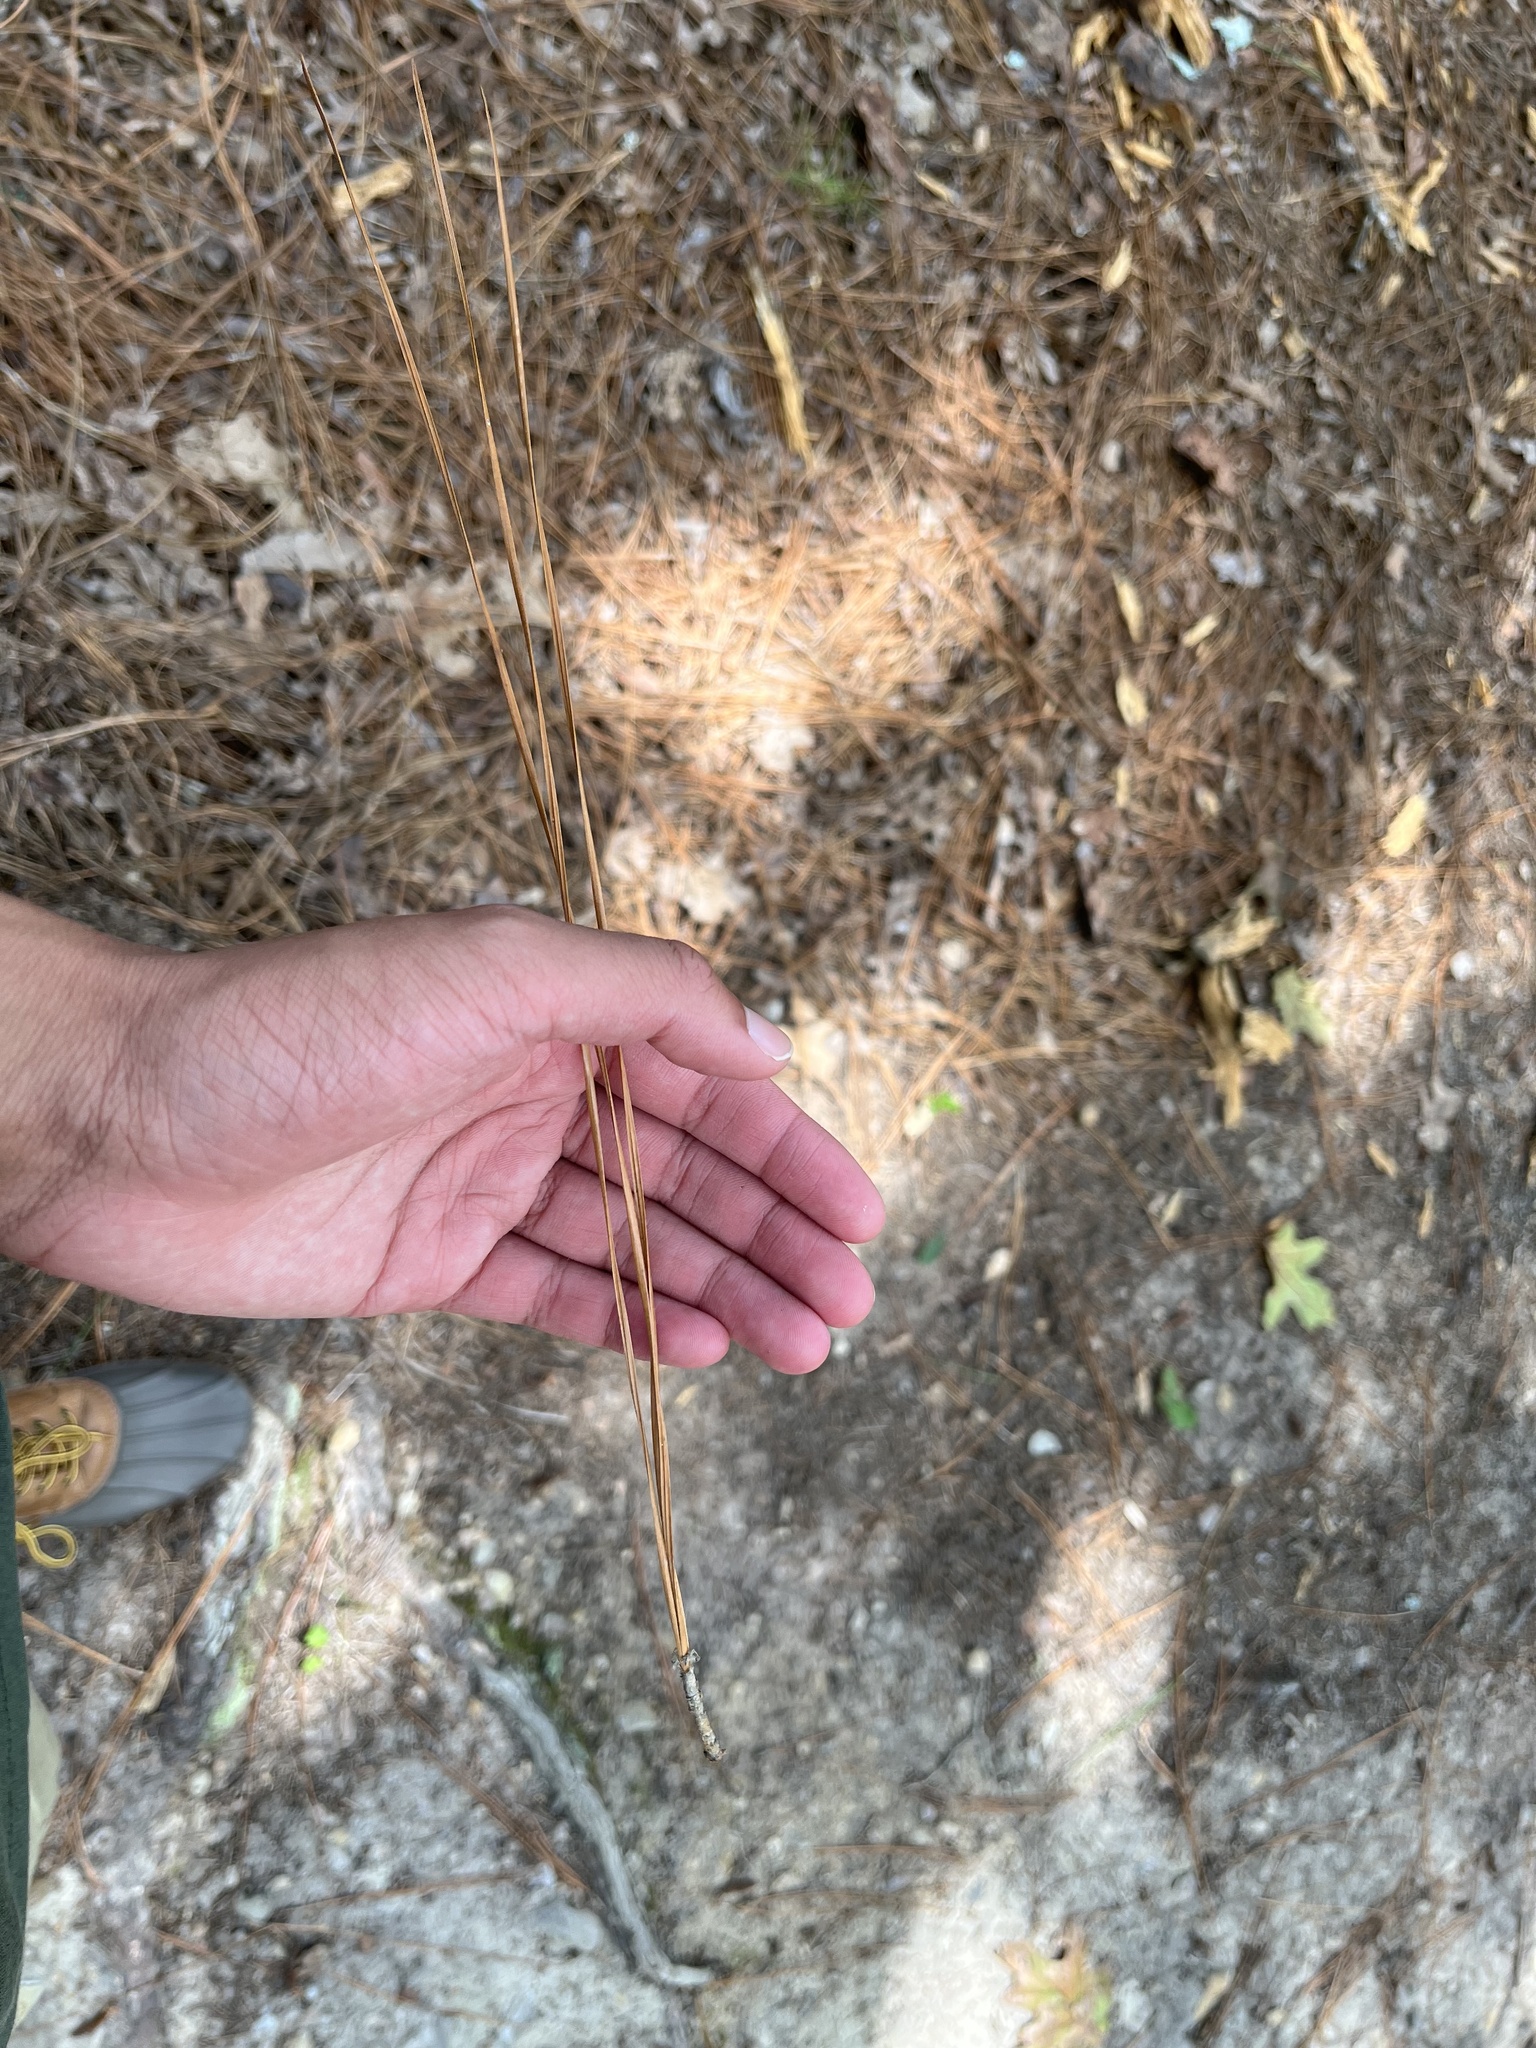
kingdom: Plantae
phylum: Tracheophyta
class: Pinopsida
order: Pinales
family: Pinaceae
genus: Pinus
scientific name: Pinus palustris
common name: Longleaf pine
